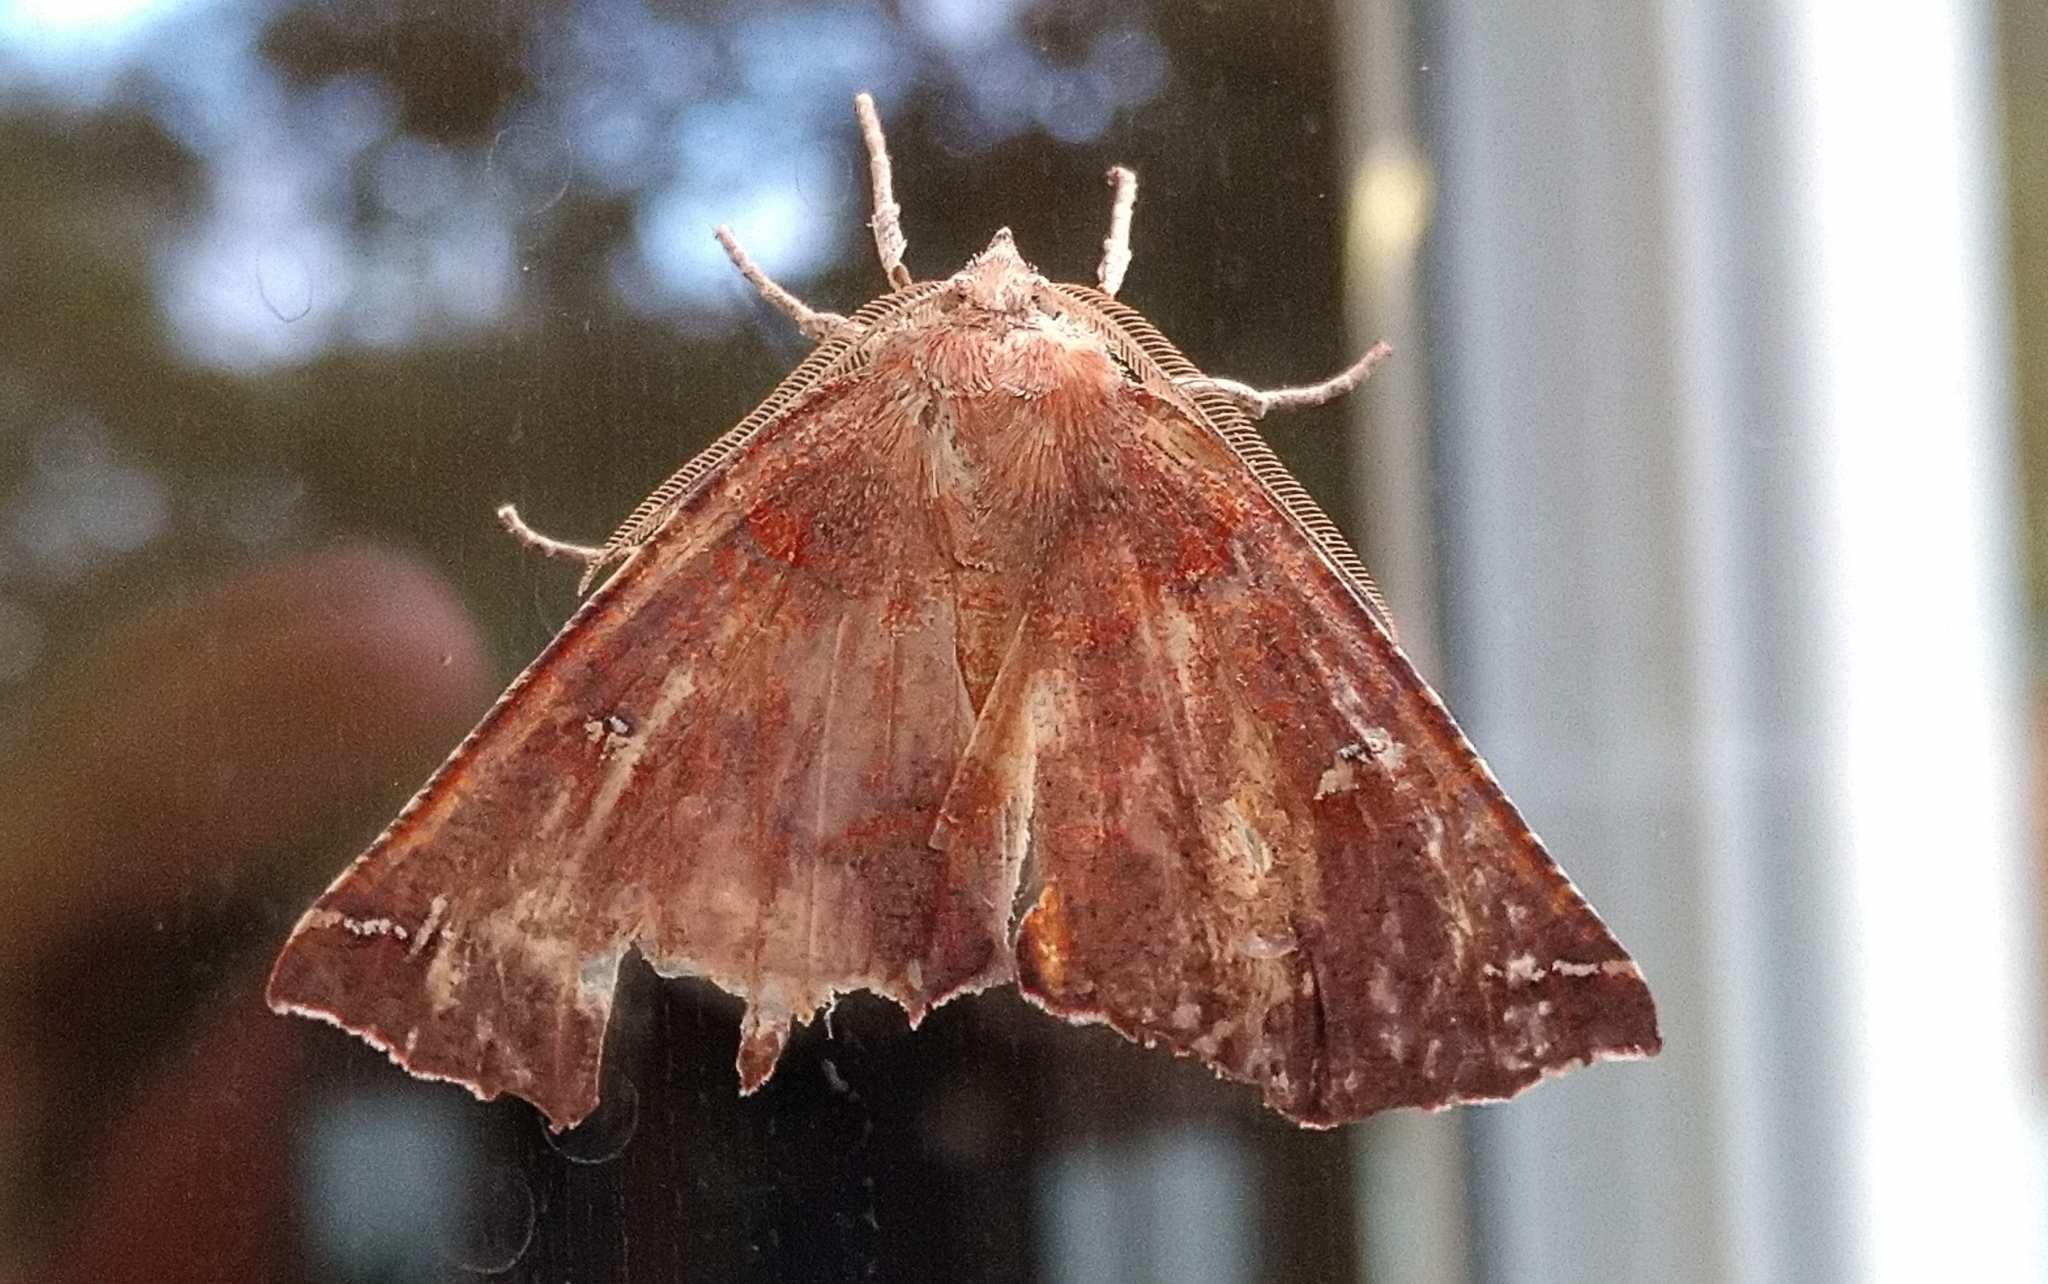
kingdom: Animalia
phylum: Arthropoda
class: Insecta
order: Lepidoptera
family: Geometridae
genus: Synnomos
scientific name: Synnomos narangia
